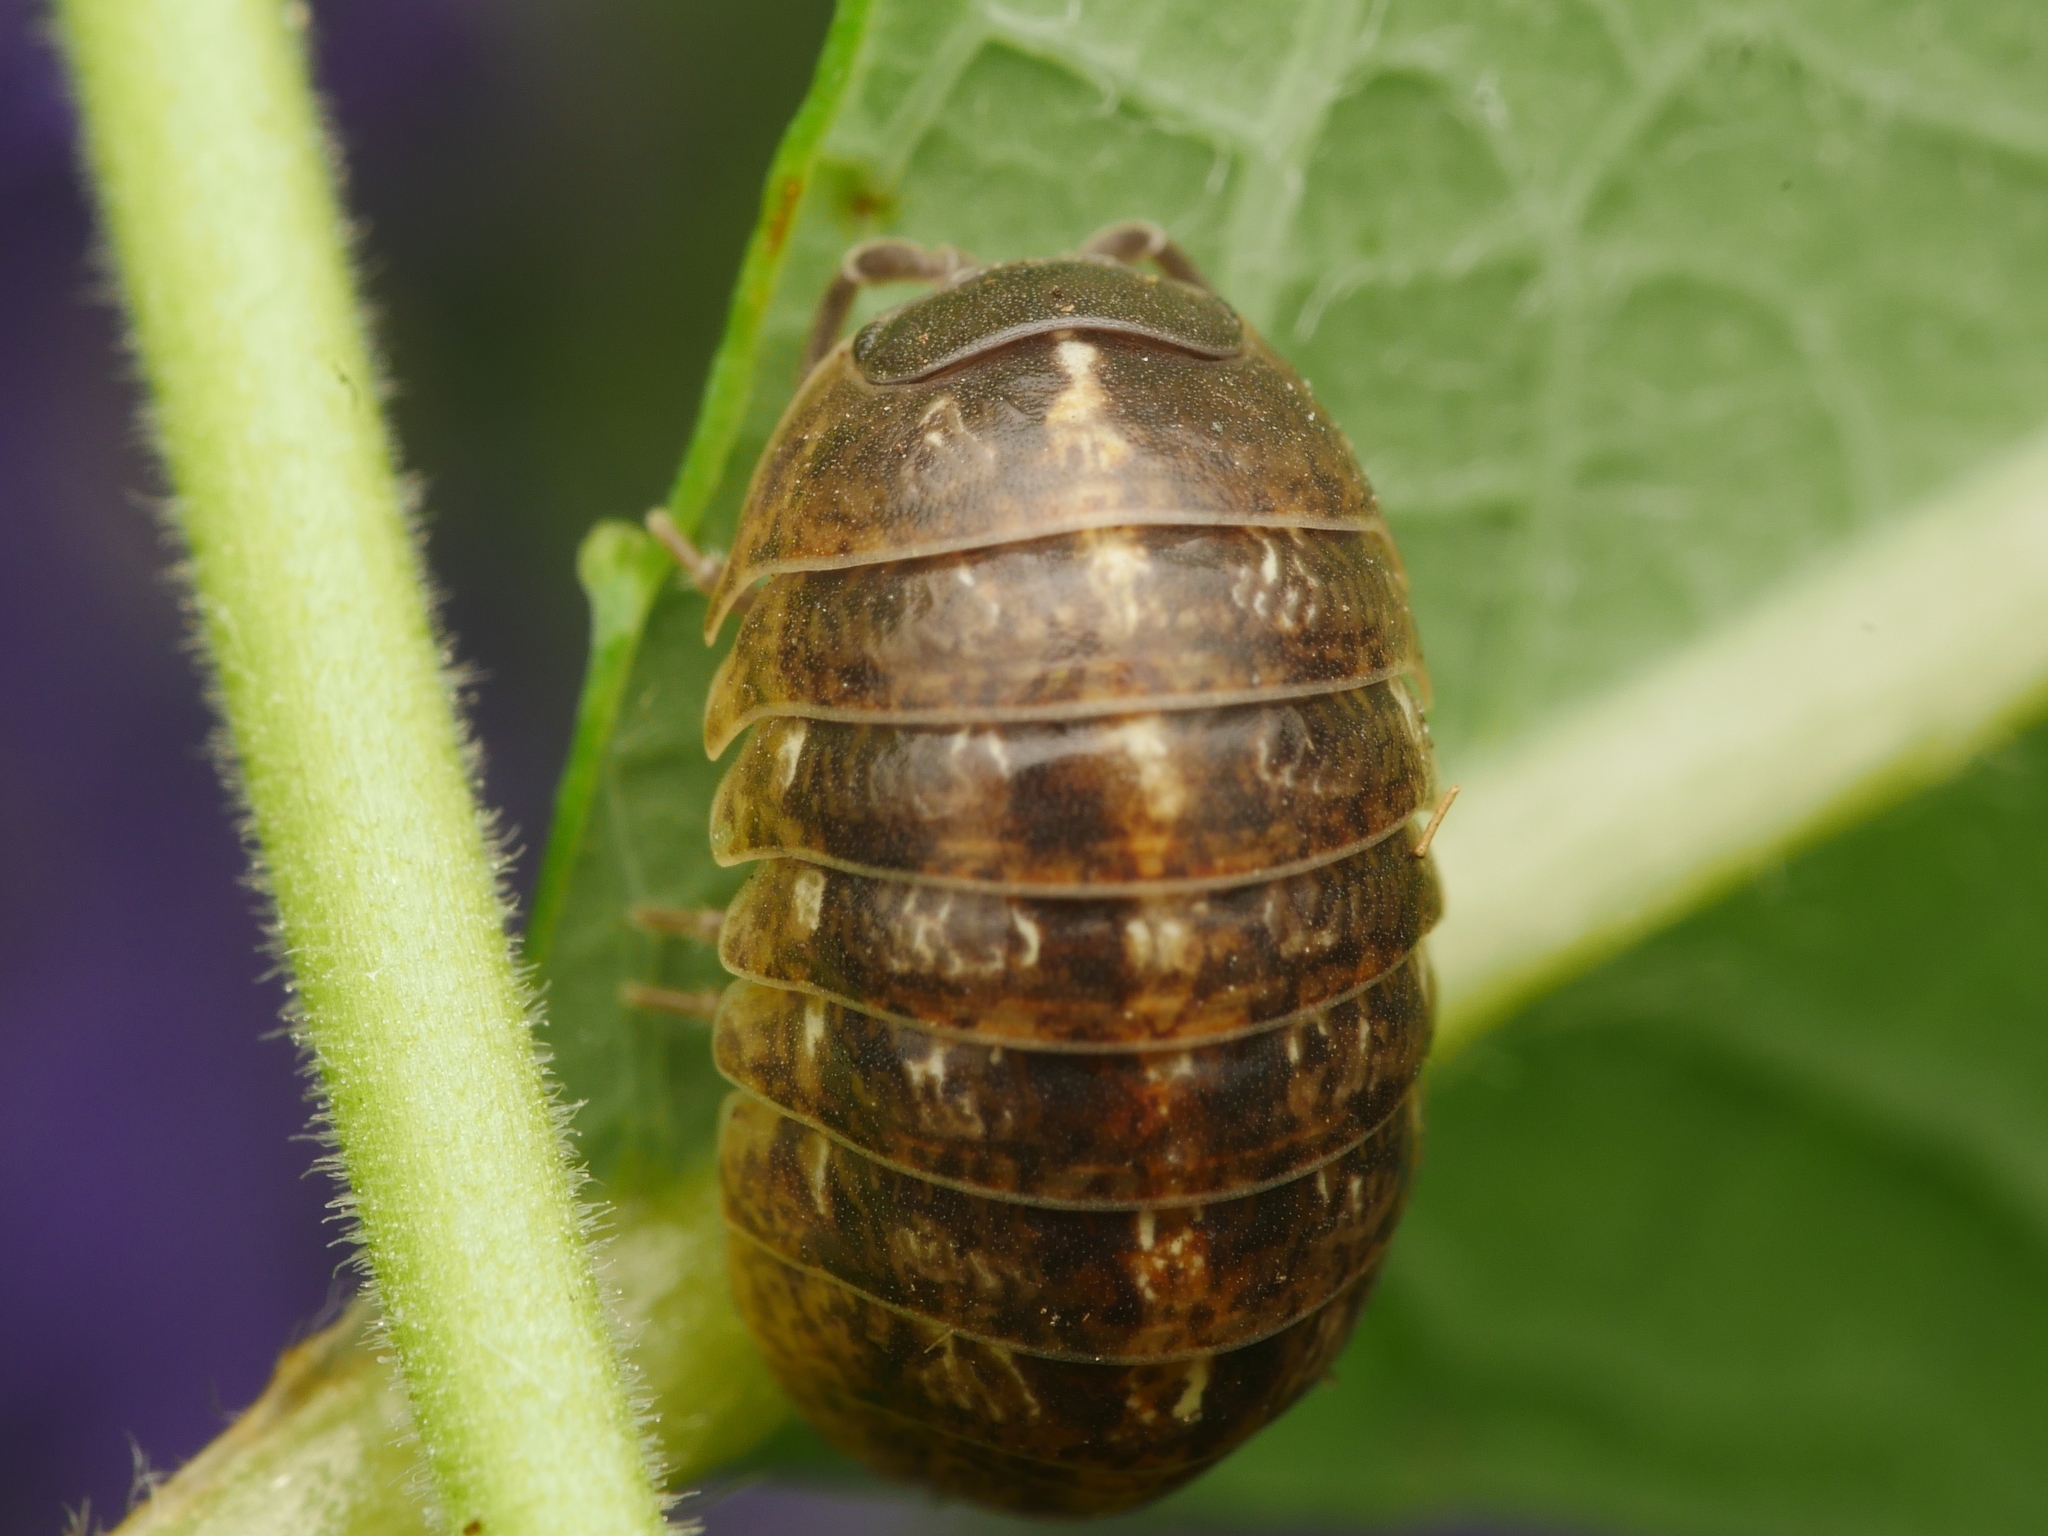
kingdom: Animalia
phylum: Arthropoda
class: Malacostraca
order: Isopoda
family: Armadillidiidae
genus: Armadillidium
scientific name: Armadillidium vulgare
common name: Common pill woodlouse
